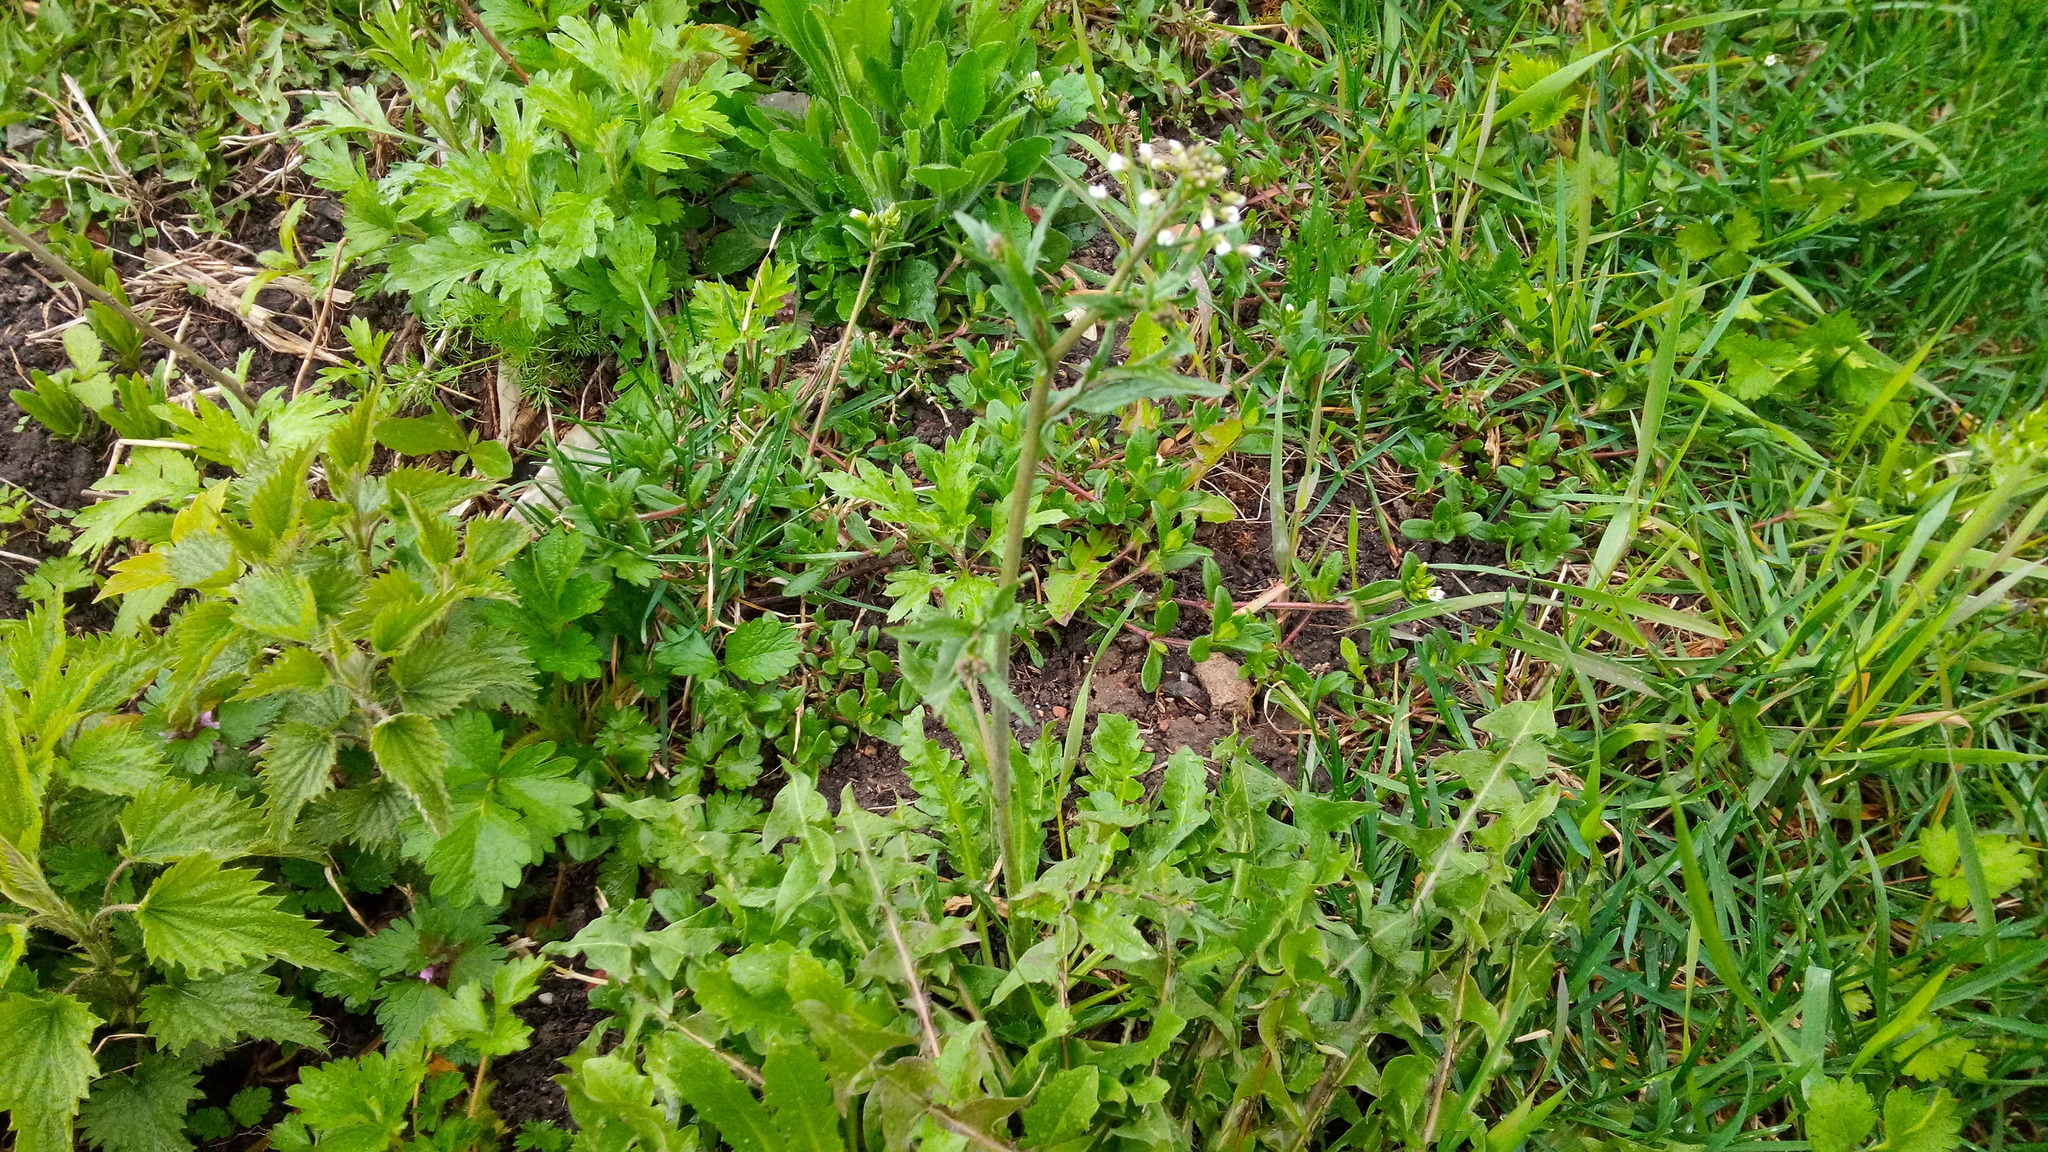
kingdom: Plantae
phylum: Tracheophyta
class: Magnoliopsida
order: Brassicales
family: Brassicaceae
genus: Capsella
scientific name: Capsella bursa-pastoris
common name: Shepherd's purse
